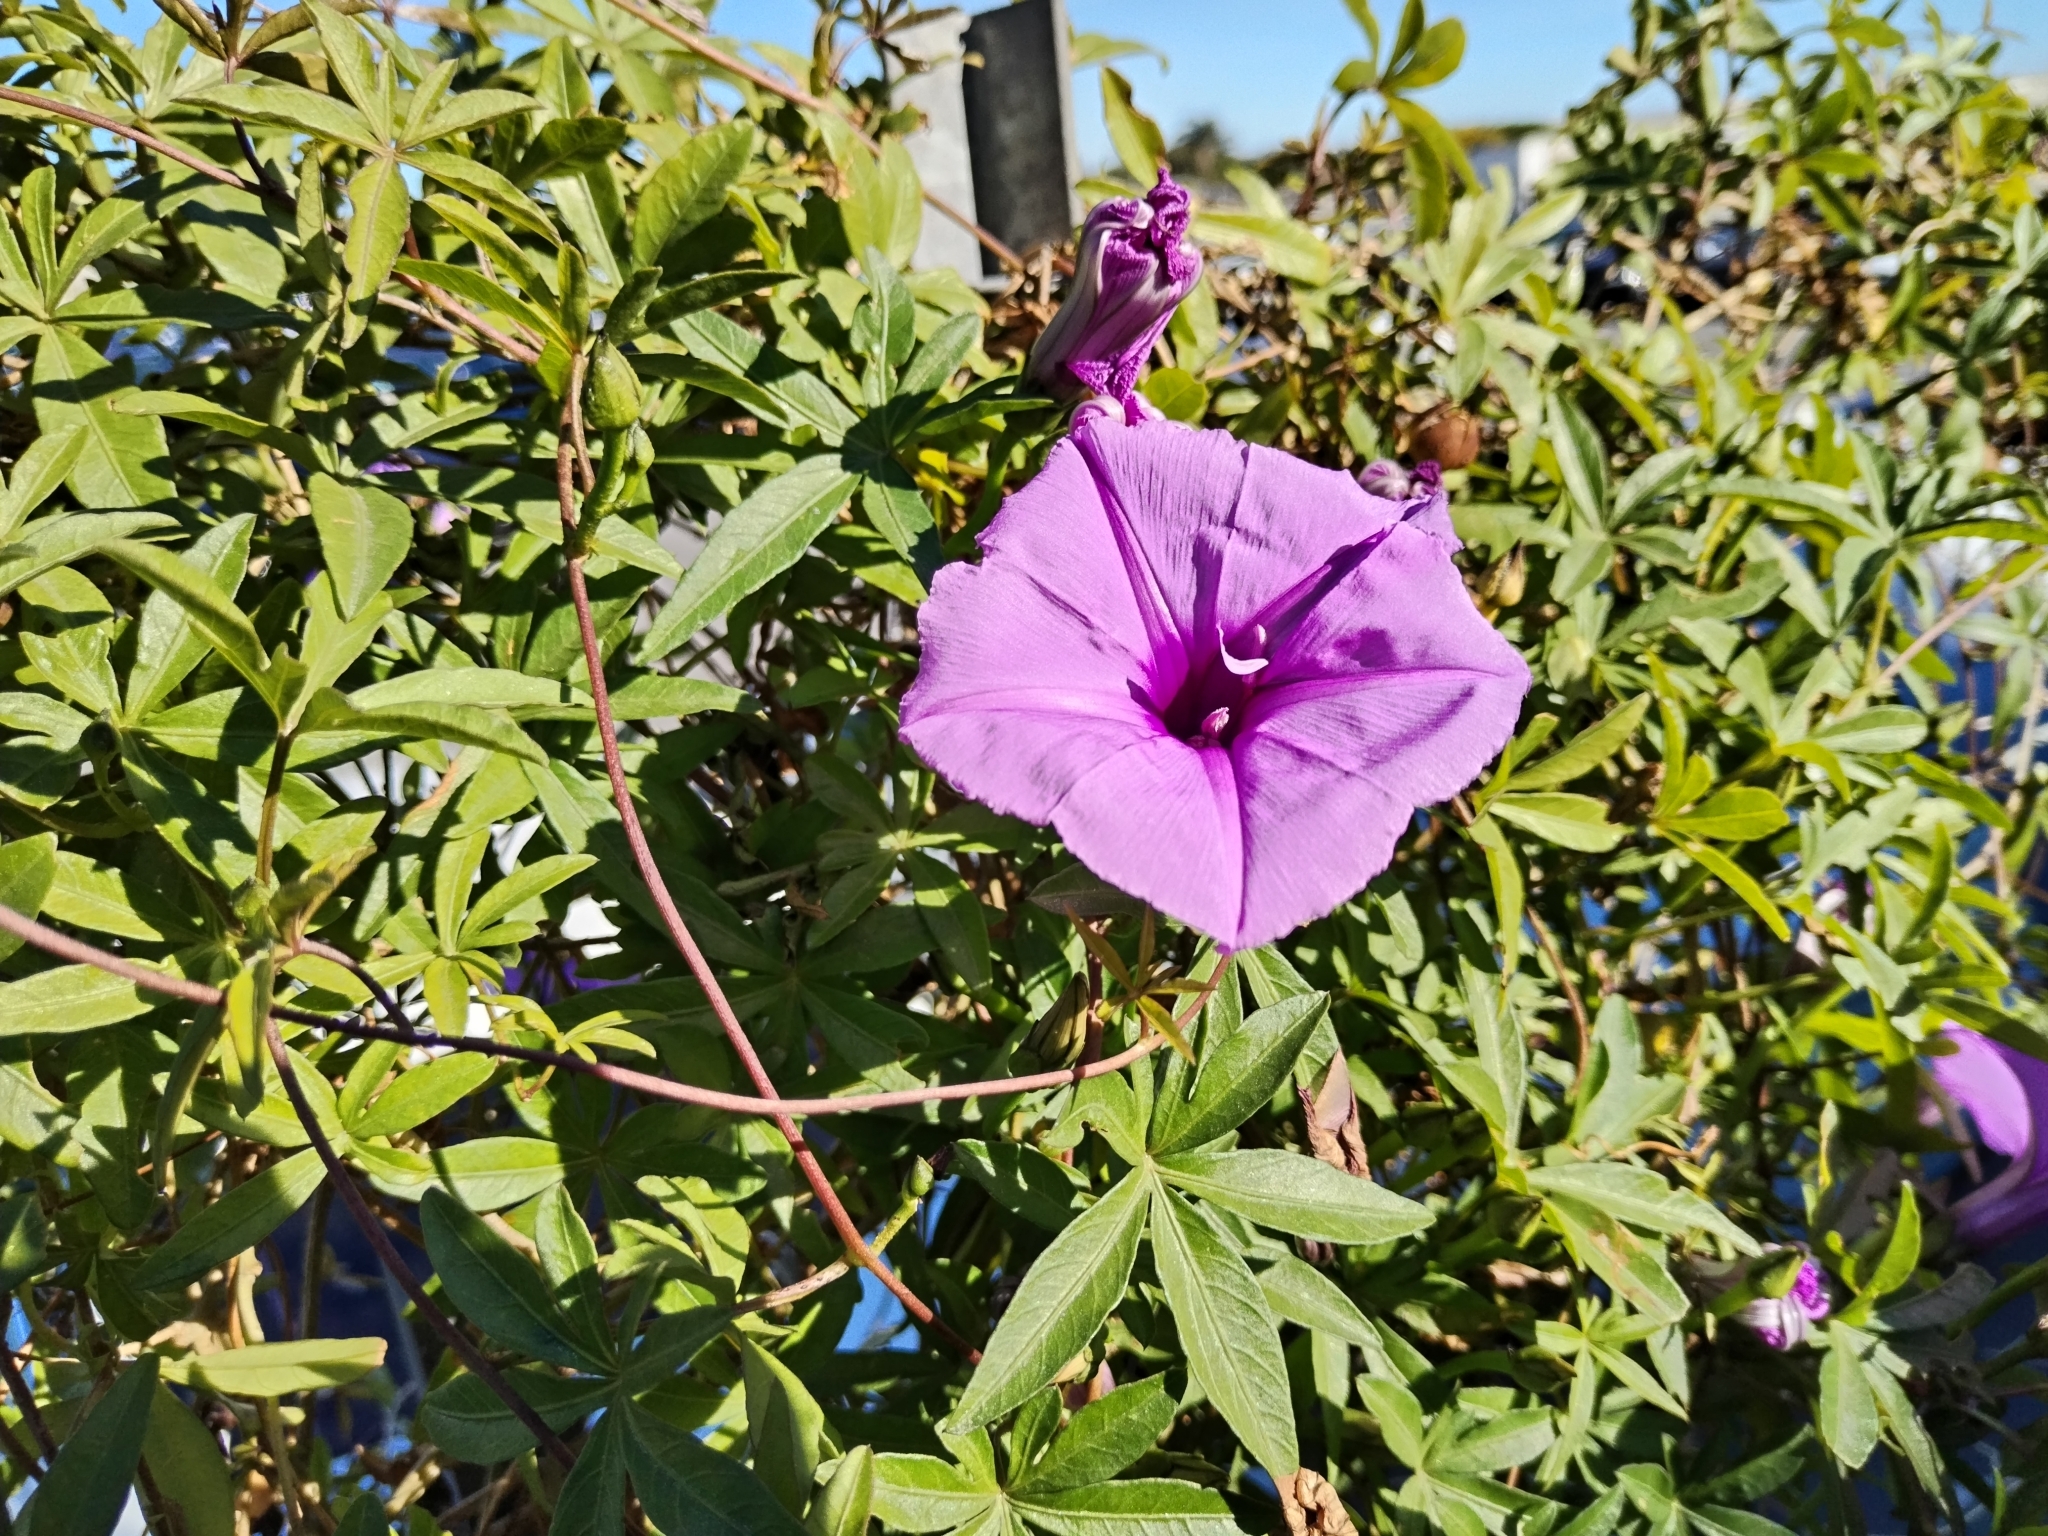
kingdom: Plantae
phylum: Tracheophyta
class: Magnoliopsida
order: Solanales
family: Convolvulaceae
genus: Ipomoea
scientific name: Ipomoea cairica
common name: Mile a minute vine
